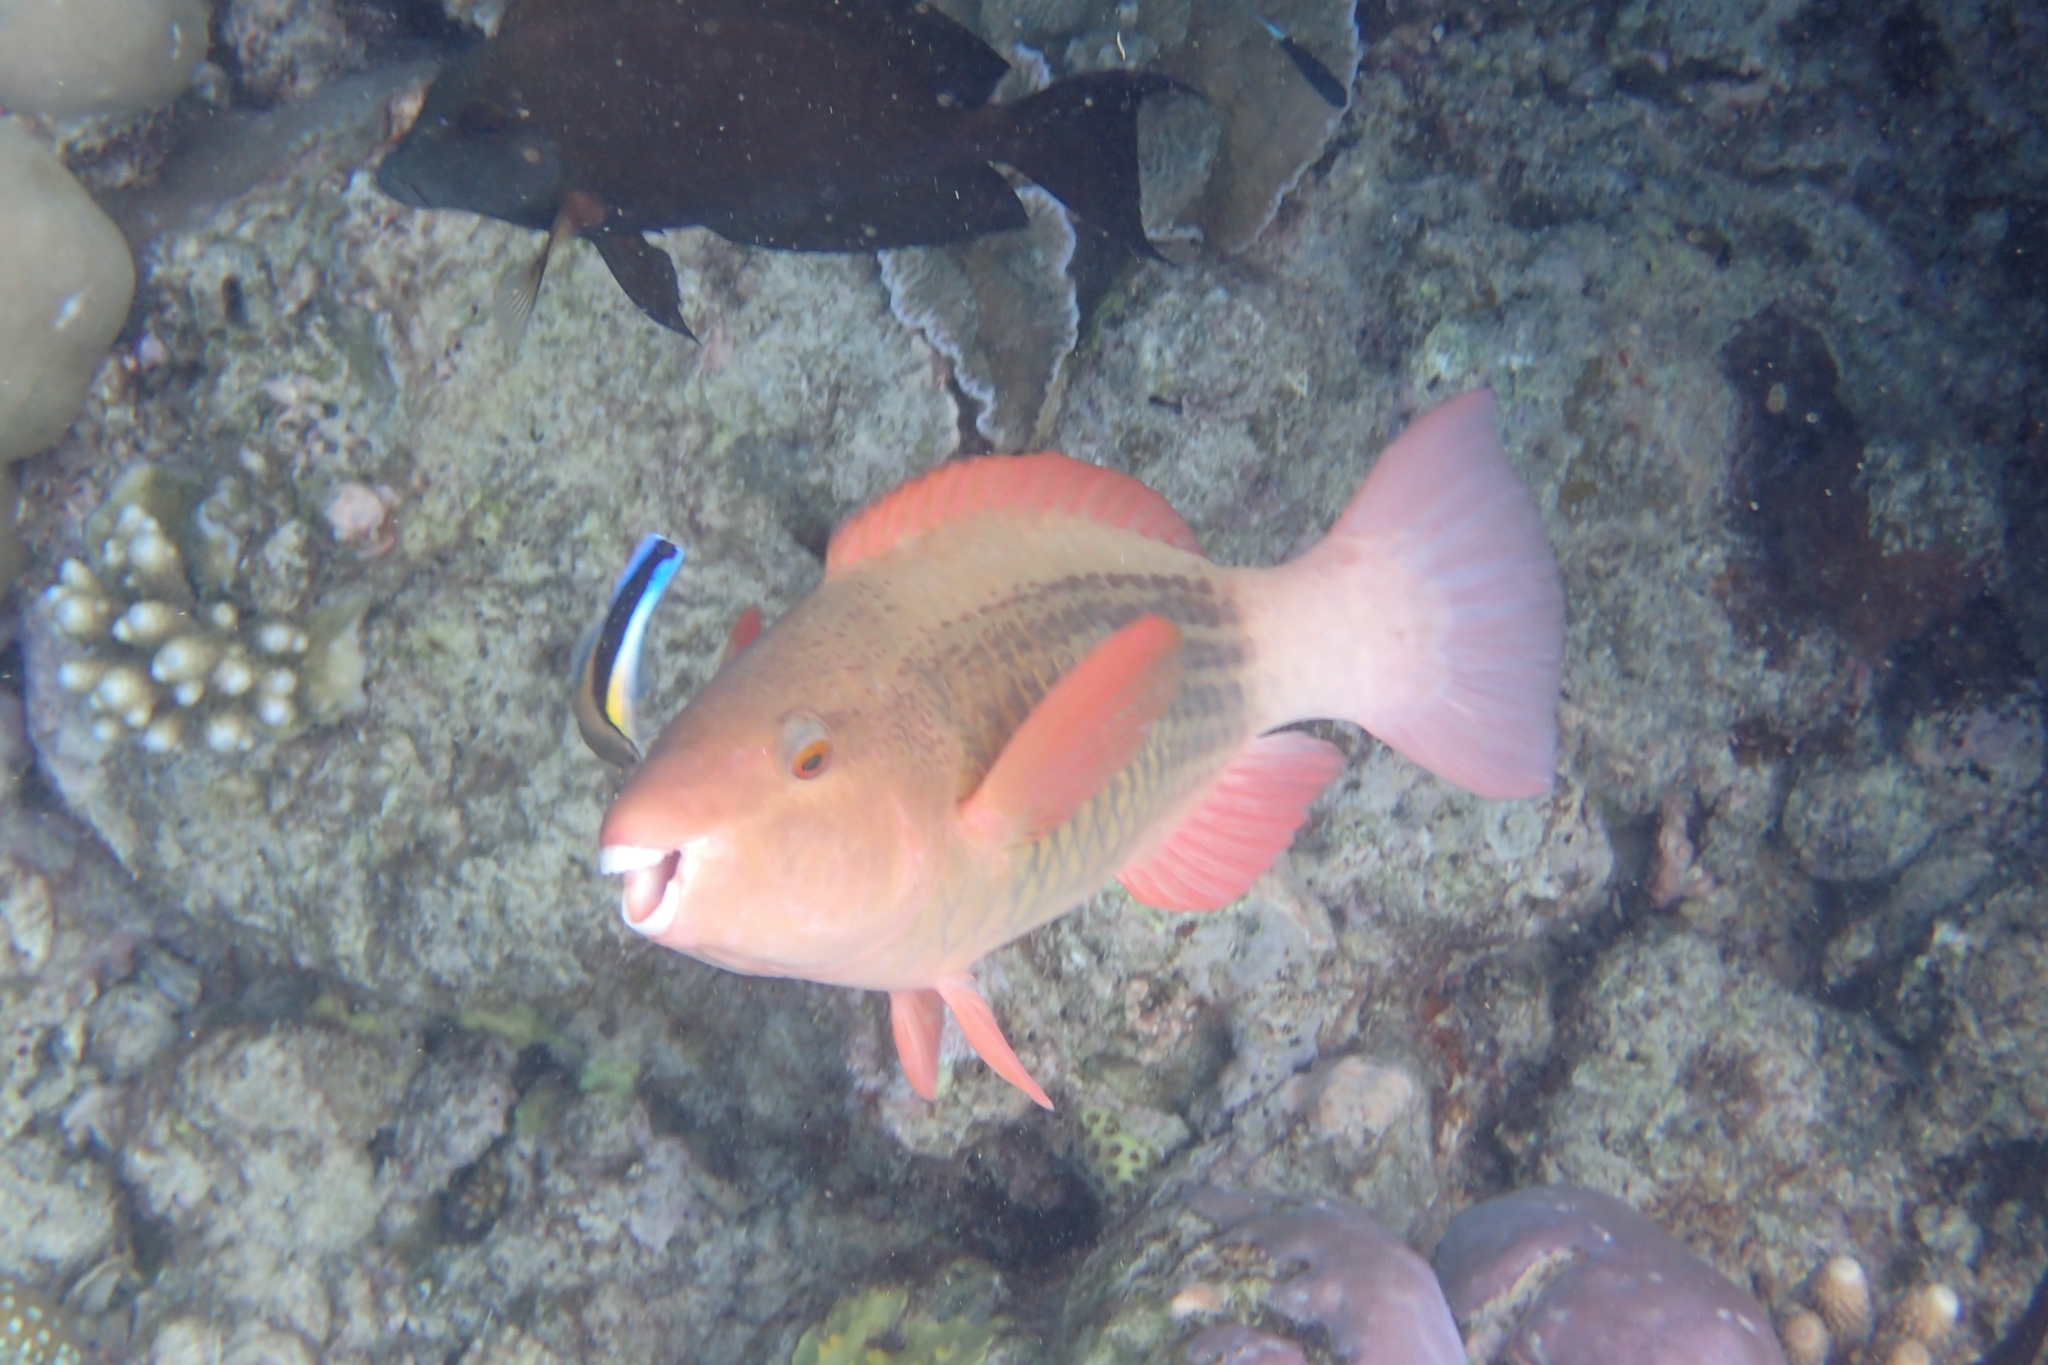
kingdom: Animalia
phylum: Chordata
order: Perciformes
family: Scaridae
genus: Scarus
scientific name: Scarus frenatus
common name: Bridled parrotfish
